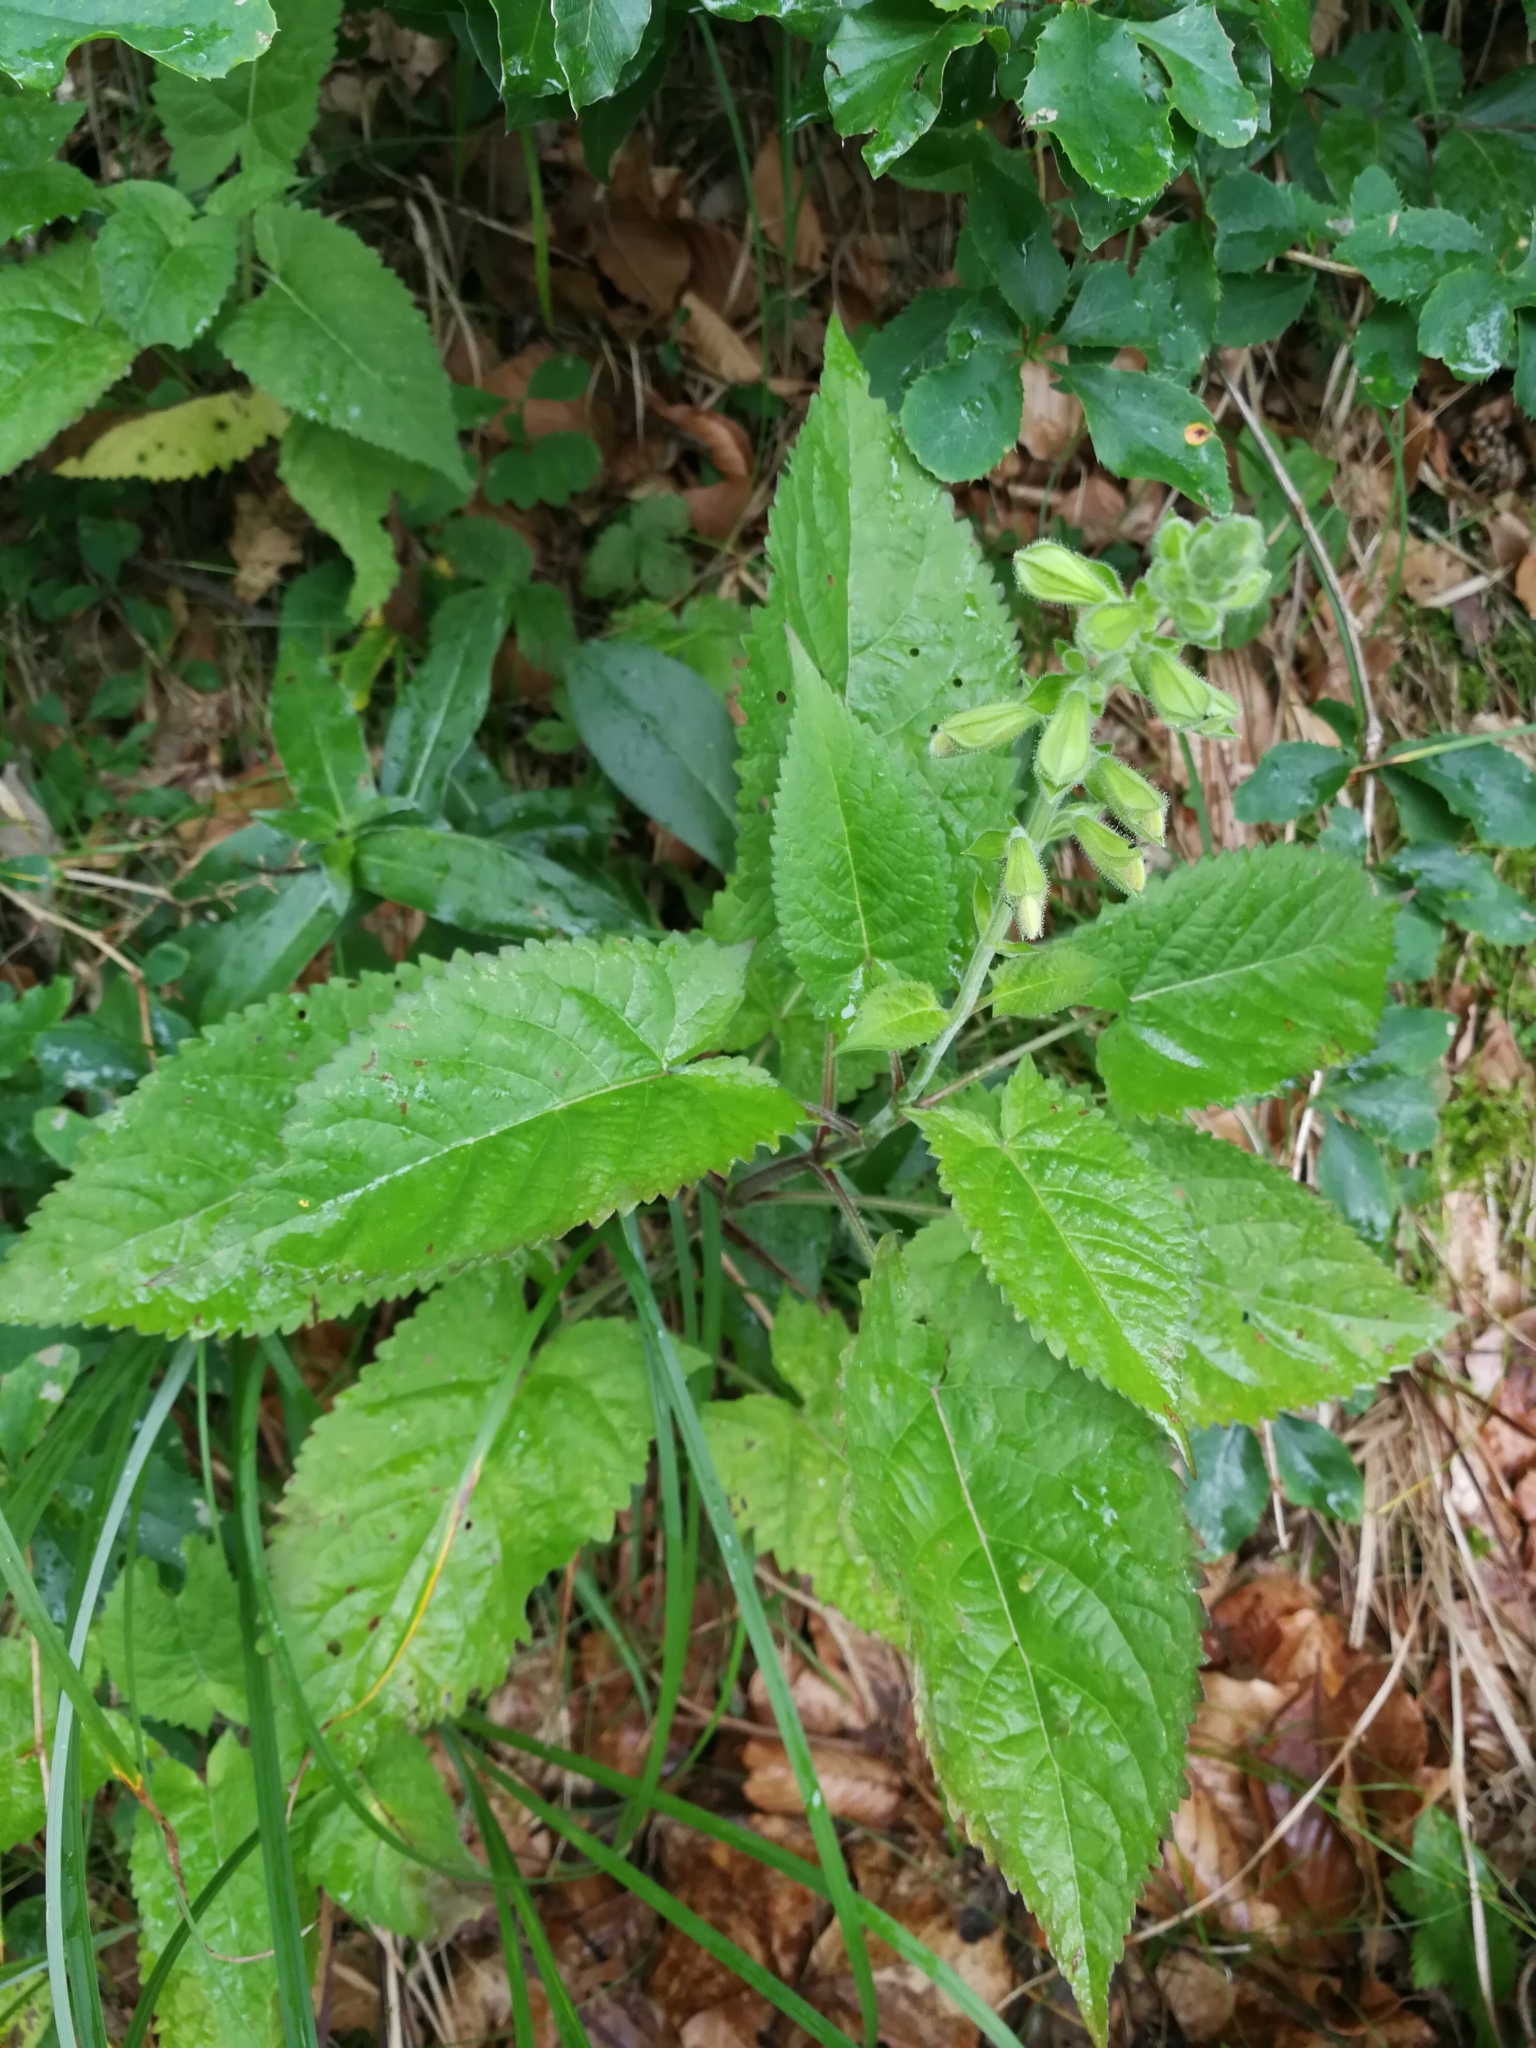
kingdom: Plantae
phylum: Tracheophyta
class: Magnoliopsida
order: Lamiales
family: Lamiaceae
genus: Salvia
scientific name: Salvia glutinosa
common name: Sticky clary
